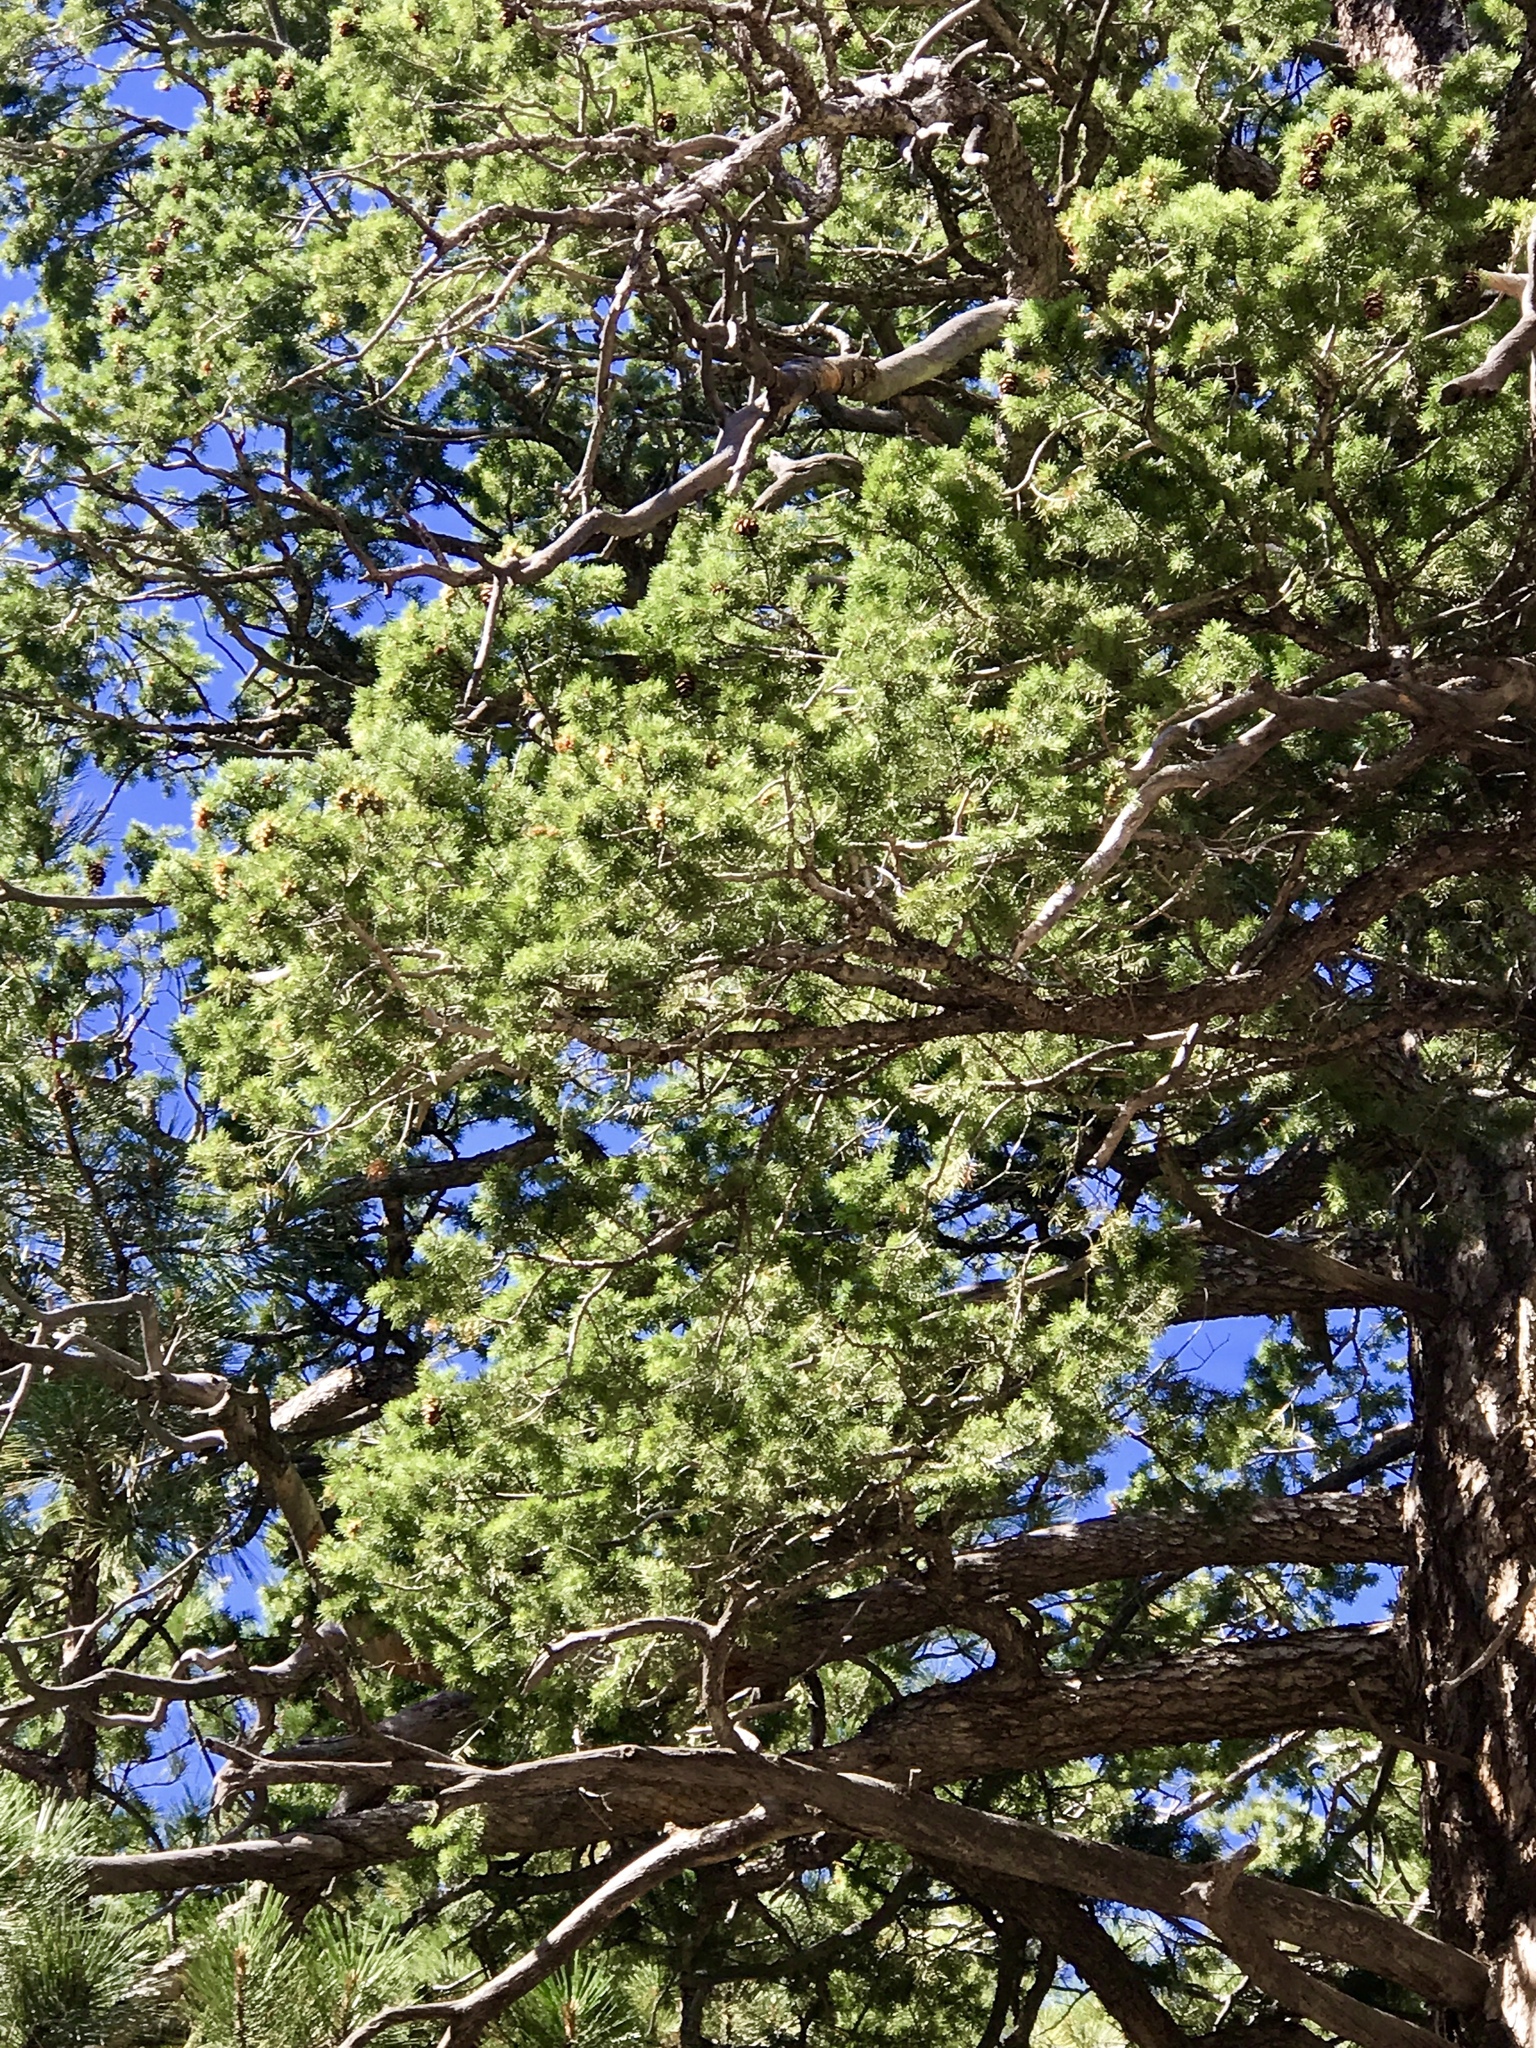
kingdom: Plantae
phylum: Tracheophyta
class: Pinopsida
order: Pinales
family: Pinaceae
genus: Pseudotsuga
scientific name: Pseudotsuga menziesii
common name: Douglas fir
